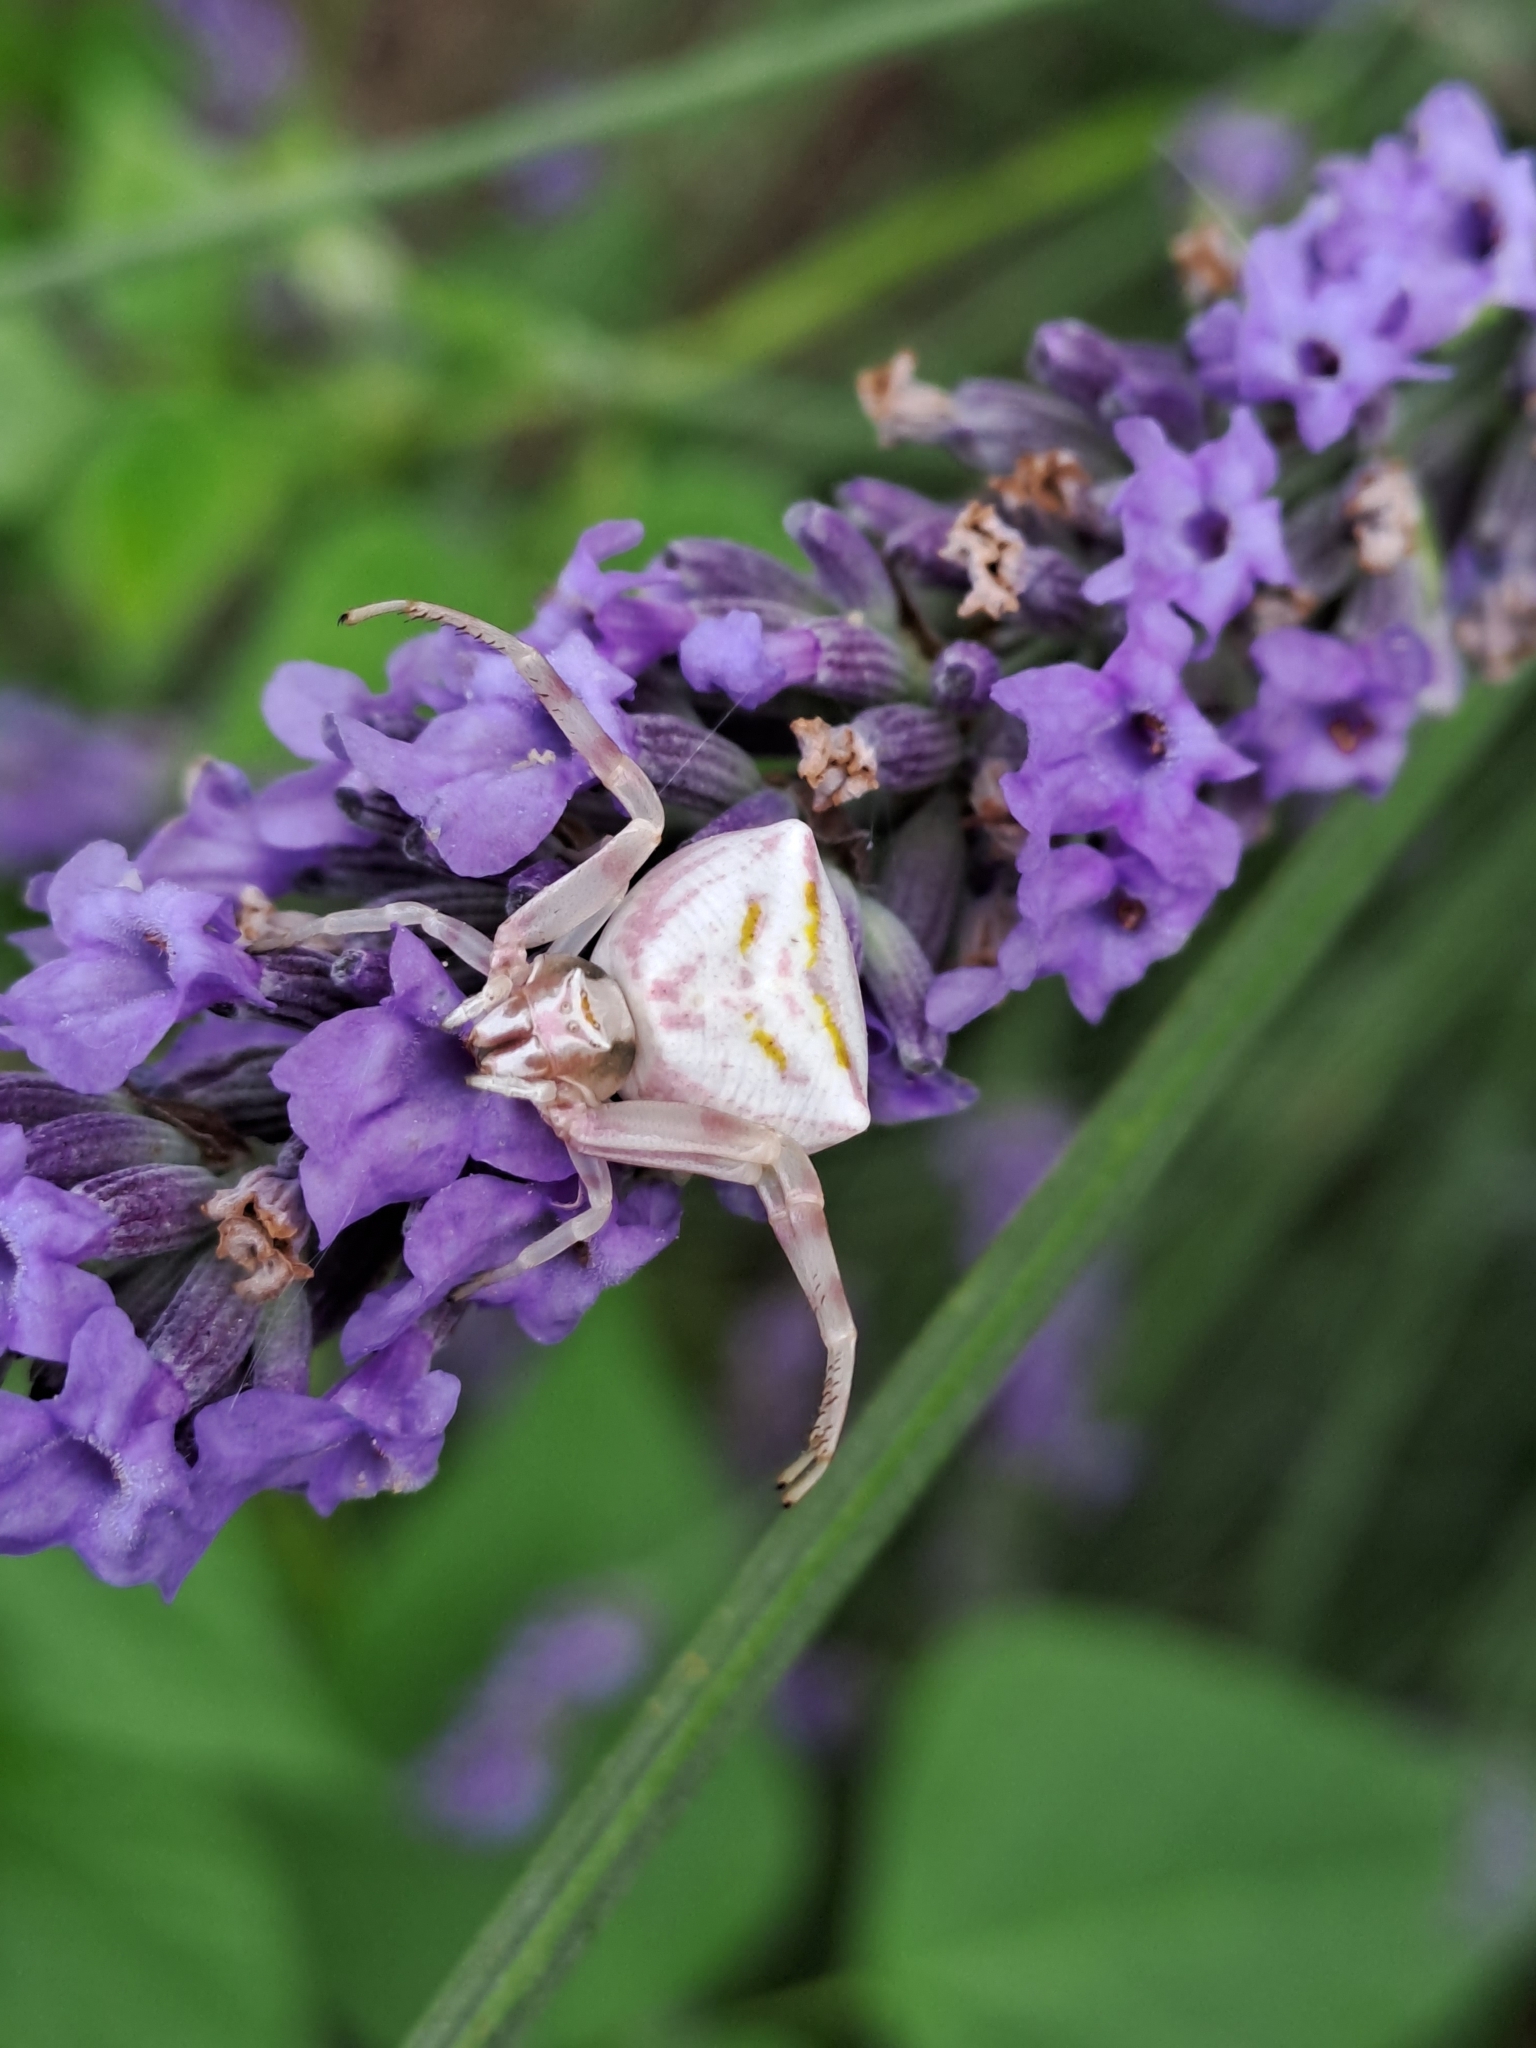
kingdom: Animalia
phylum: Arthropoda
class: Arachnida
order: Araneae
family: Thomisidae
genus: Thomisus
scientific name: Thomisus onustus
